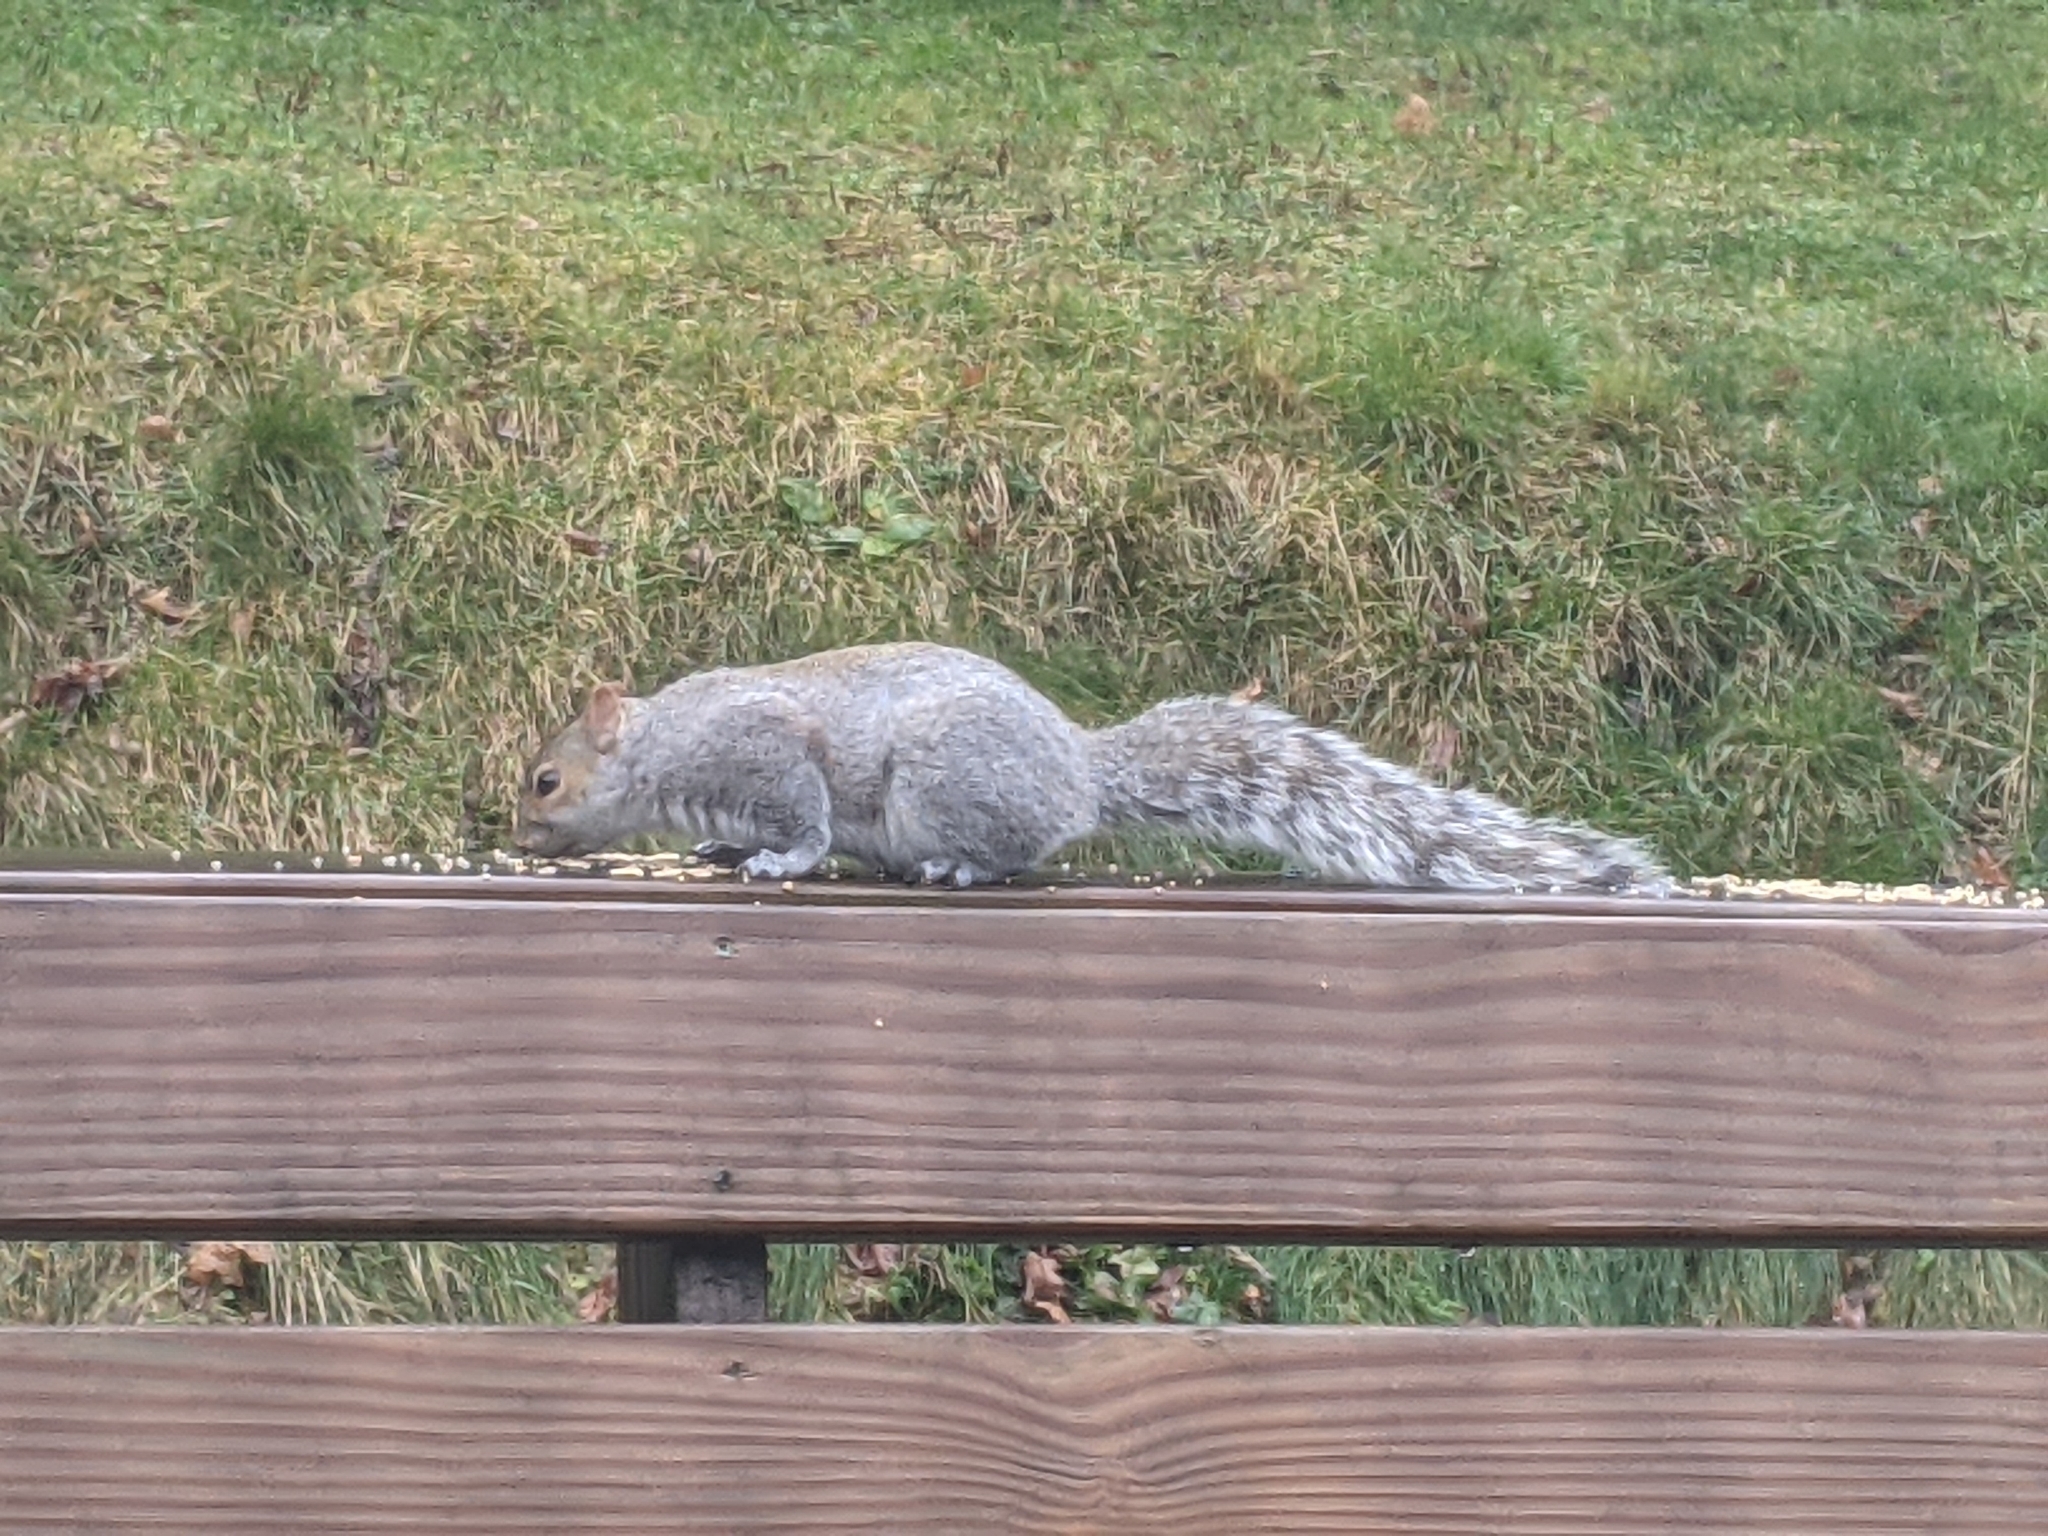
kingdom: Animalia
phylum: Chordata
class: Mammalia
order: Rodentia
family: Sciuridae
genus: Sciurus
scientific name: Sciurus carolinensis
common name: Eastern gray squirrel
